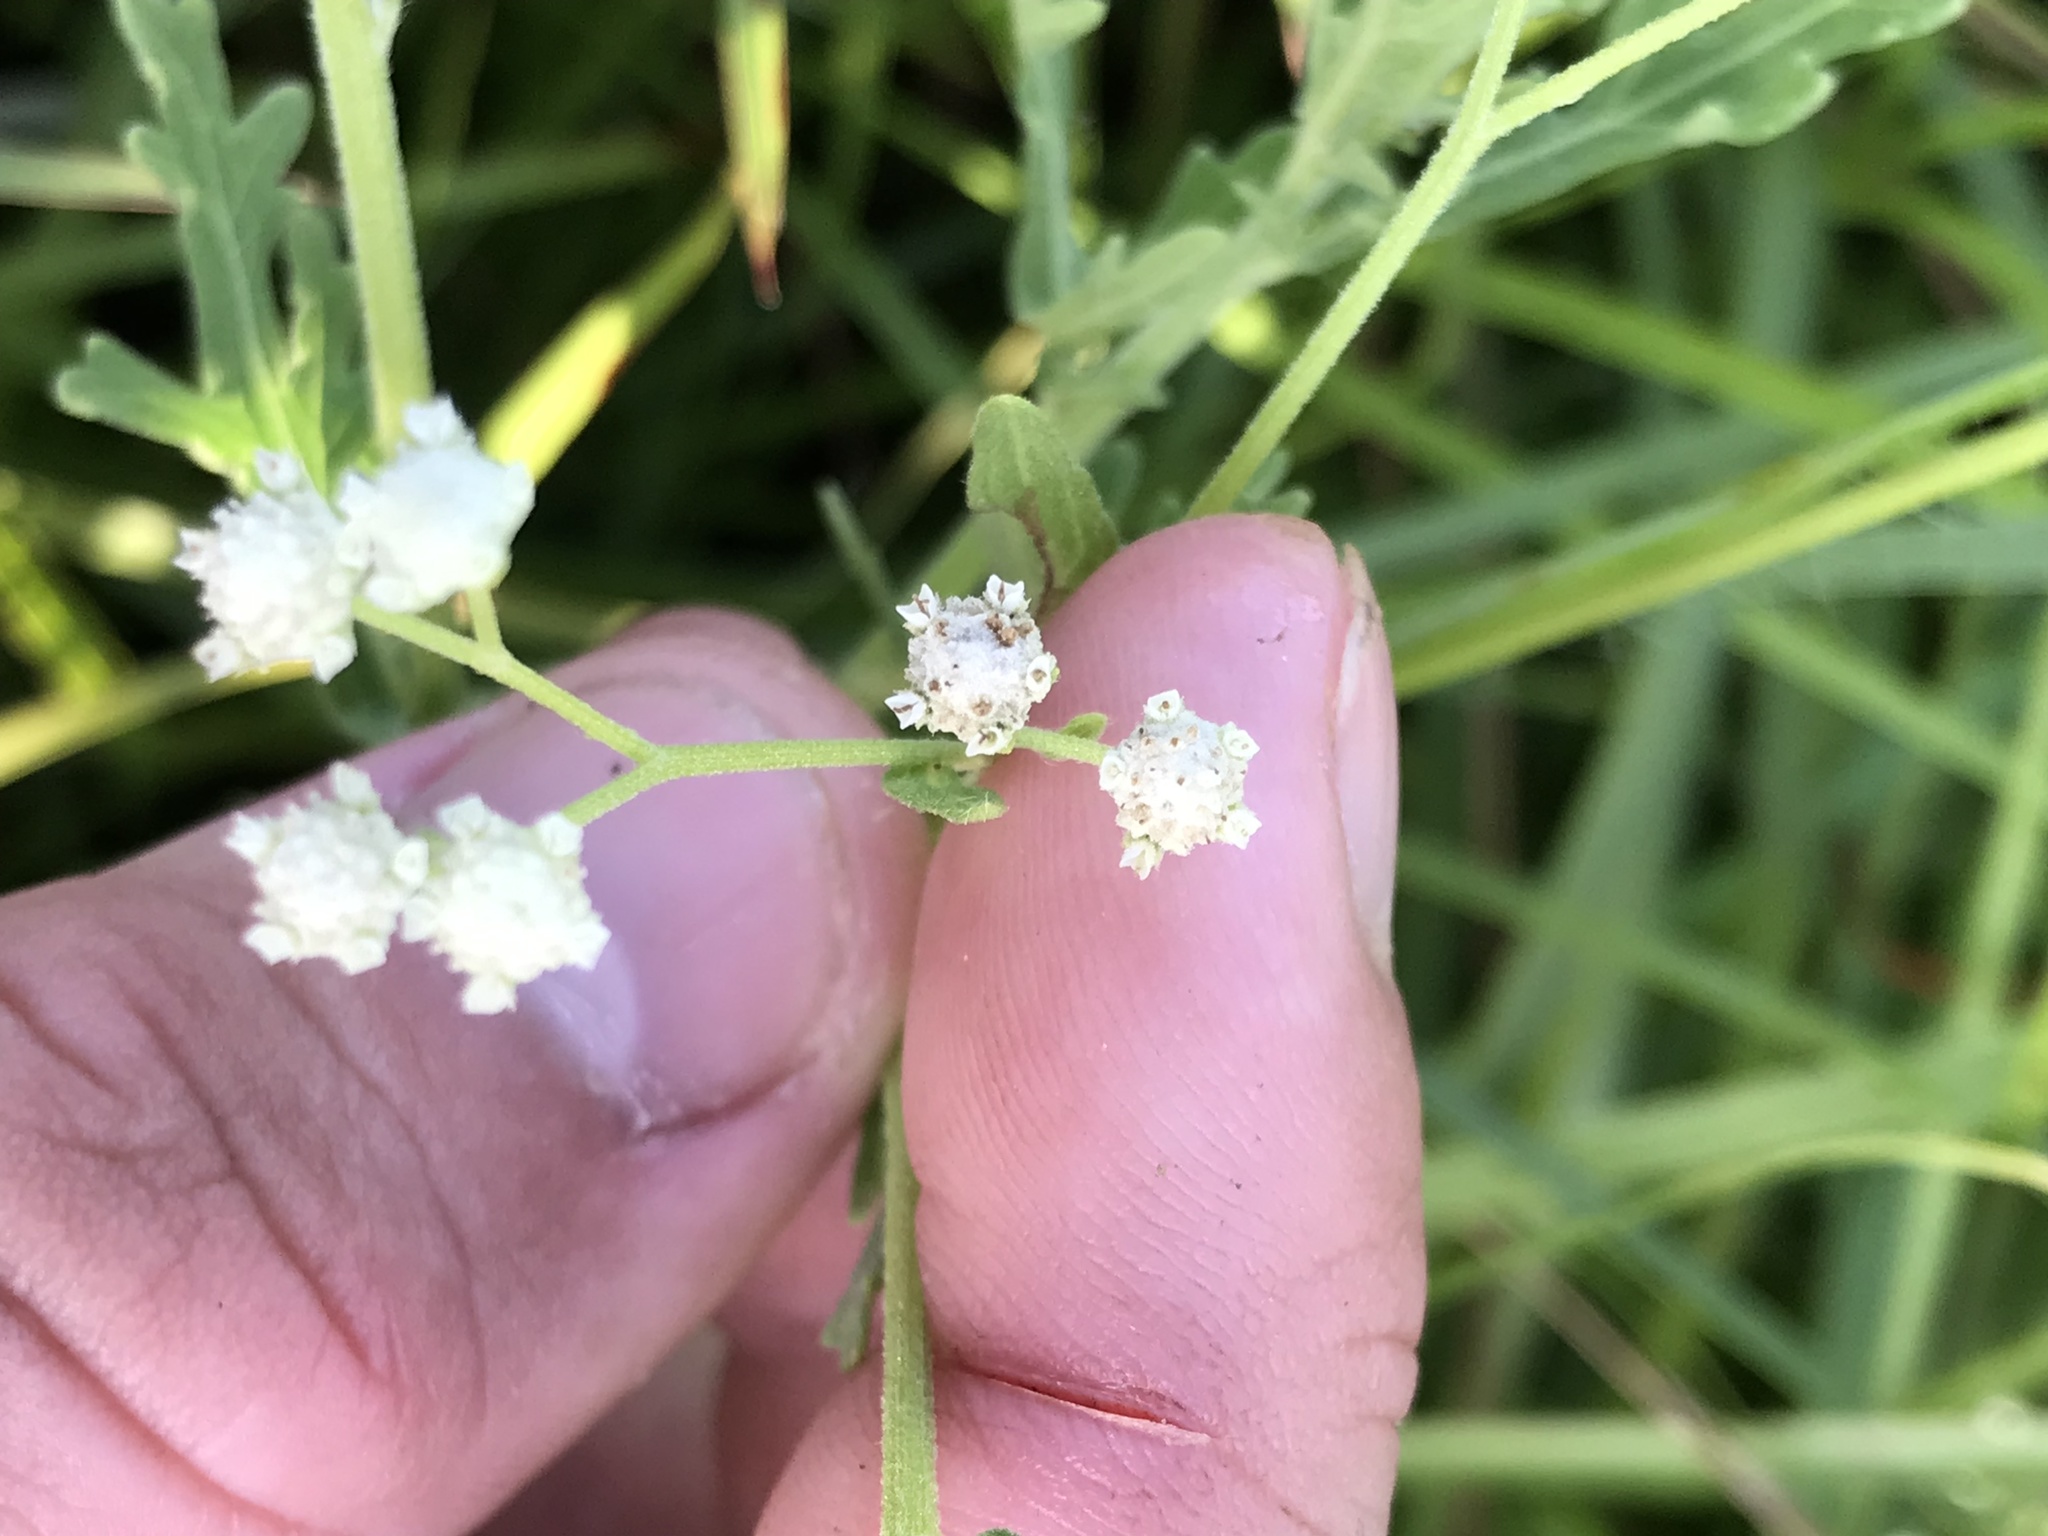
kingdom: Plantae
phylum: Tracheophyta
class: Magnoliopsida
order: Asterales
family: Asteraceae
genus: Parthenium
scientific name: Parthenium hysterophorus
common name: Santa maria feverfew
